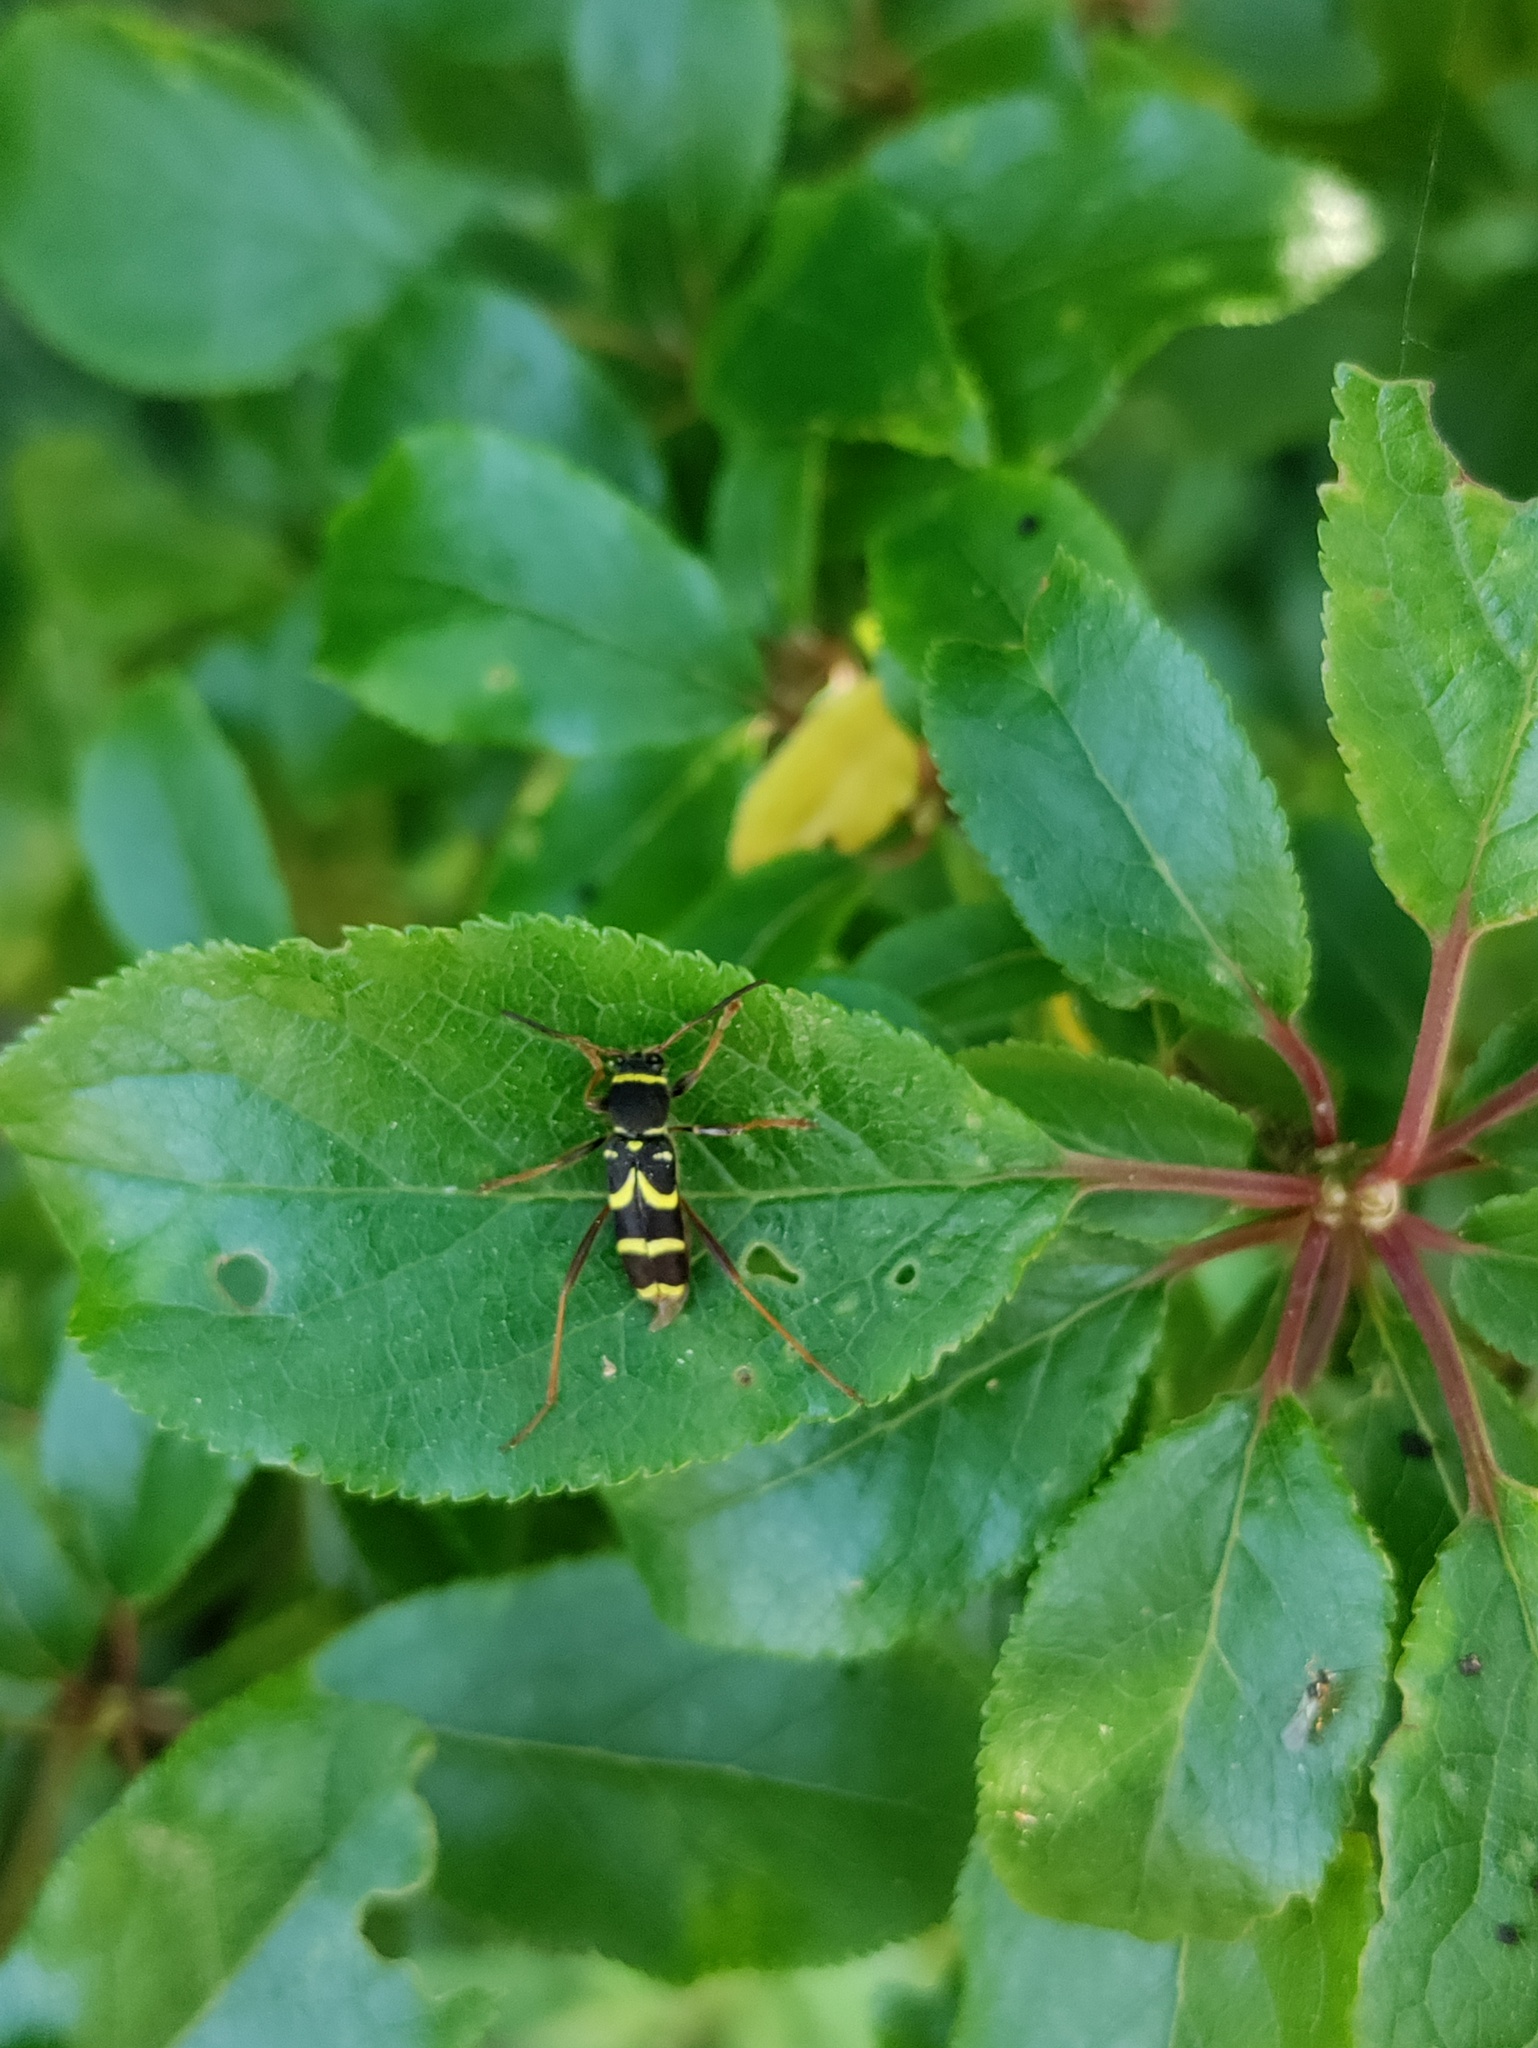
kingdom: Animalia
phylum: Arthropoda
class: Insecta
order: Coleoptera
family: Cerambycidae
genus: Clytus
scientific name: Clytus arietis
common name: Wasp beetle
